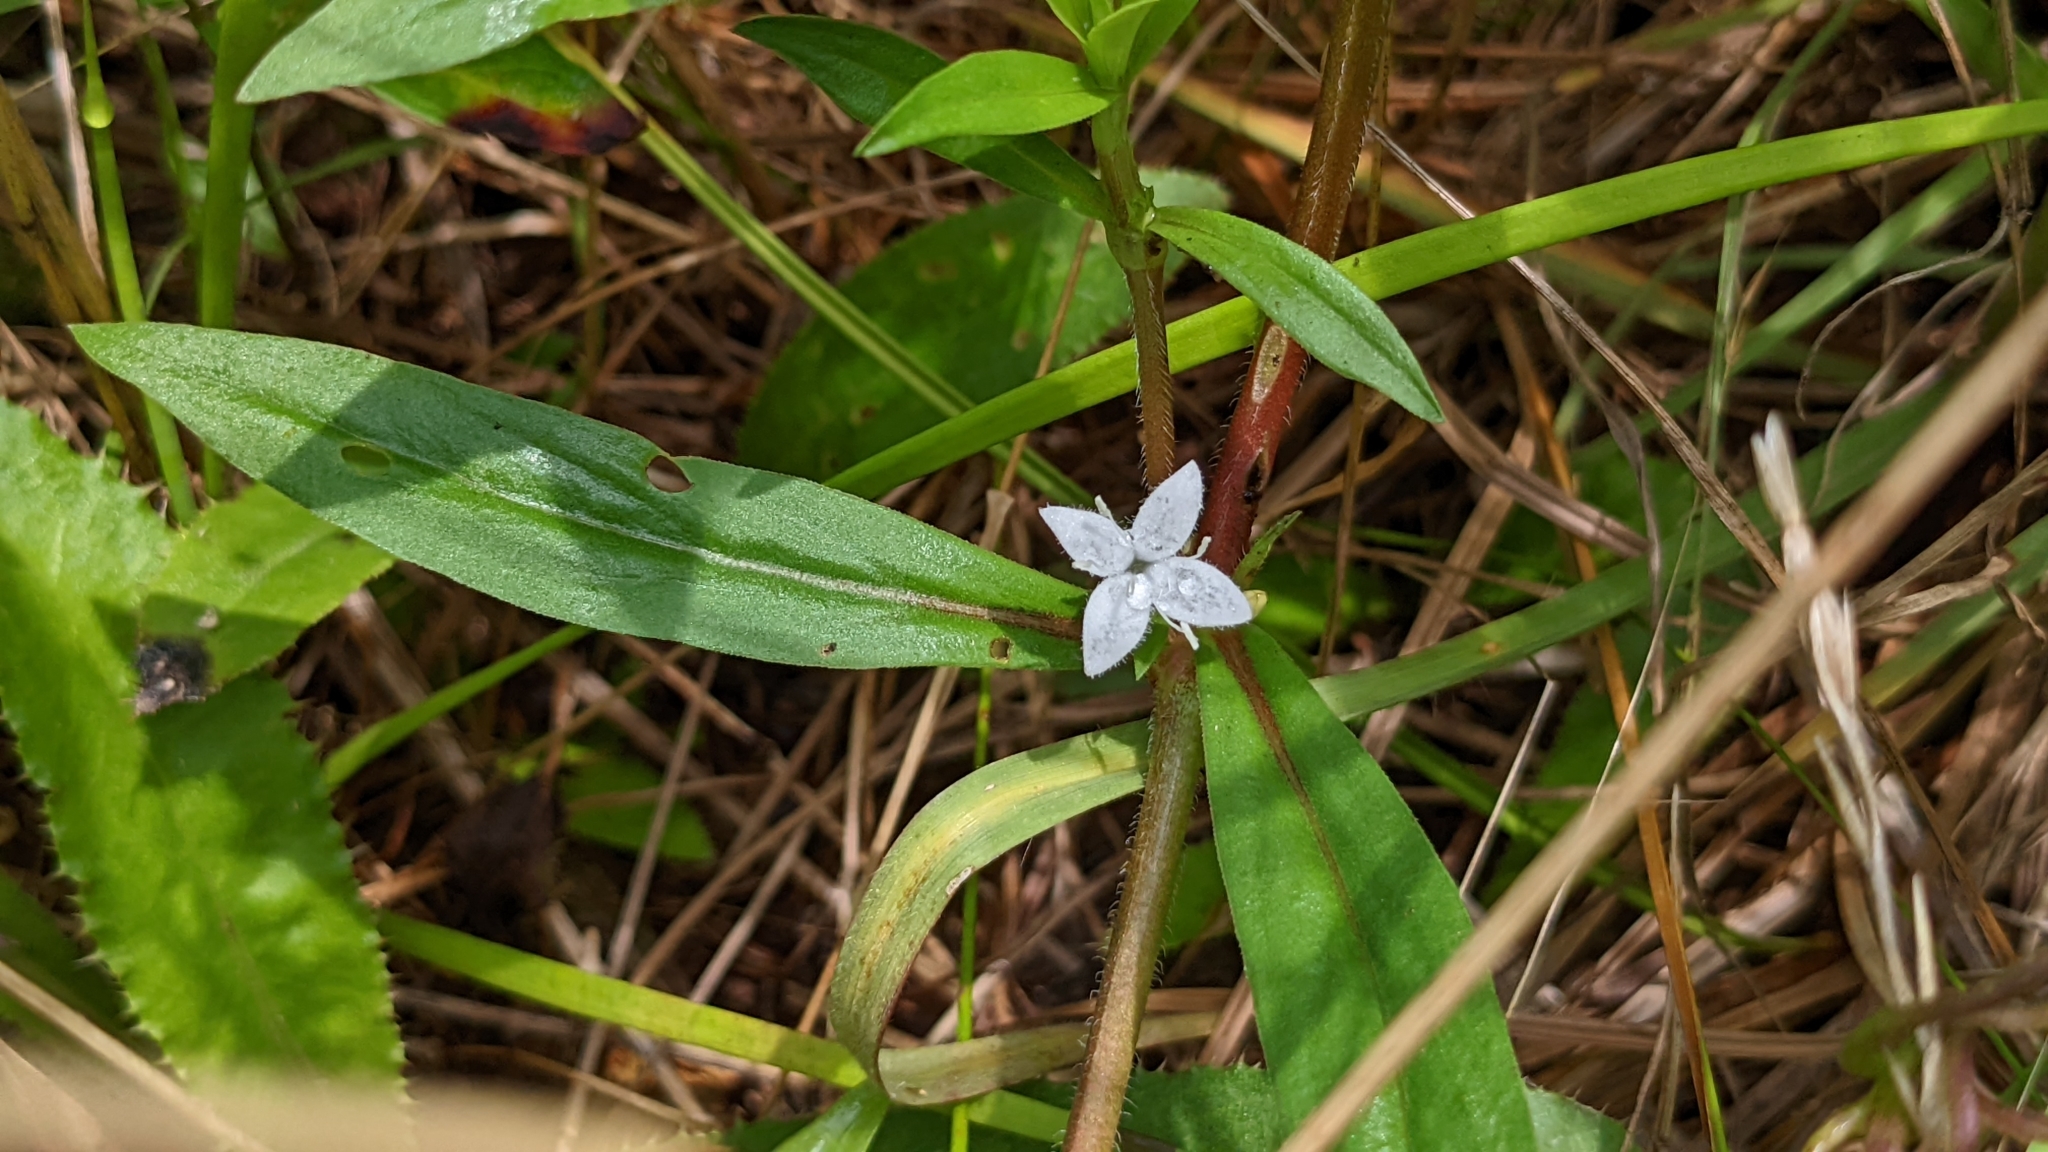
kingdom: Plantae
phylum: Tracheophyta
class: Magnoliopsida
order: Gentianales
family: Rubiaceae
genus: Diodia
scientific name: Diodia virginiana
